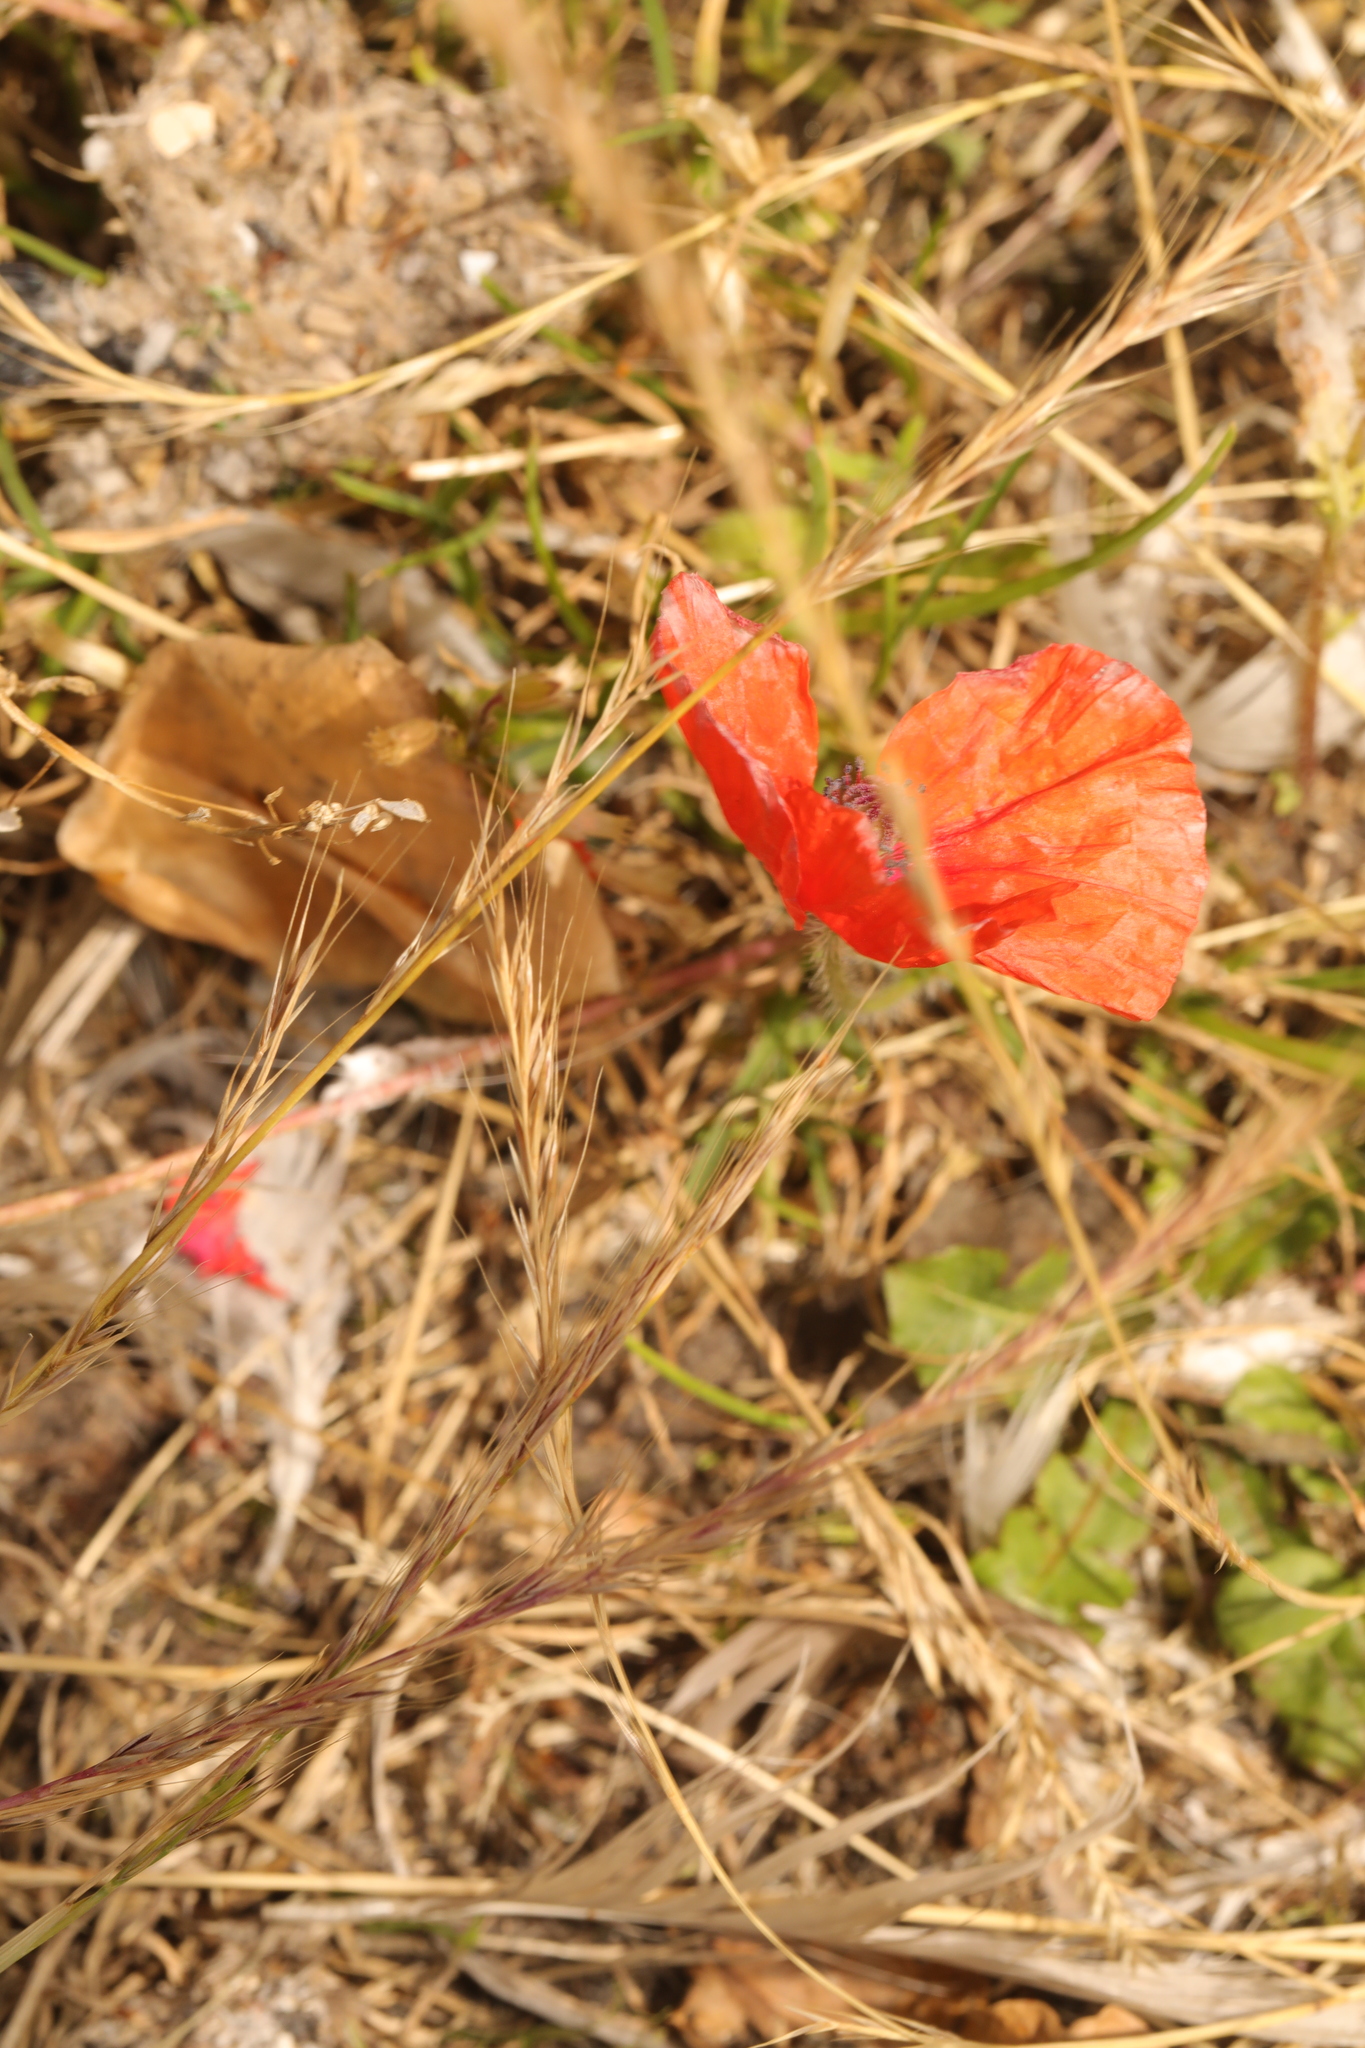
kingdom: Plantae
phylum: Tracheophyta
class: Magnoliopsida
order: Ranunculales
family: Papaveraceae
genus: Papaver
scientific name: Papaver rhoeas
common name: Corn poppy
